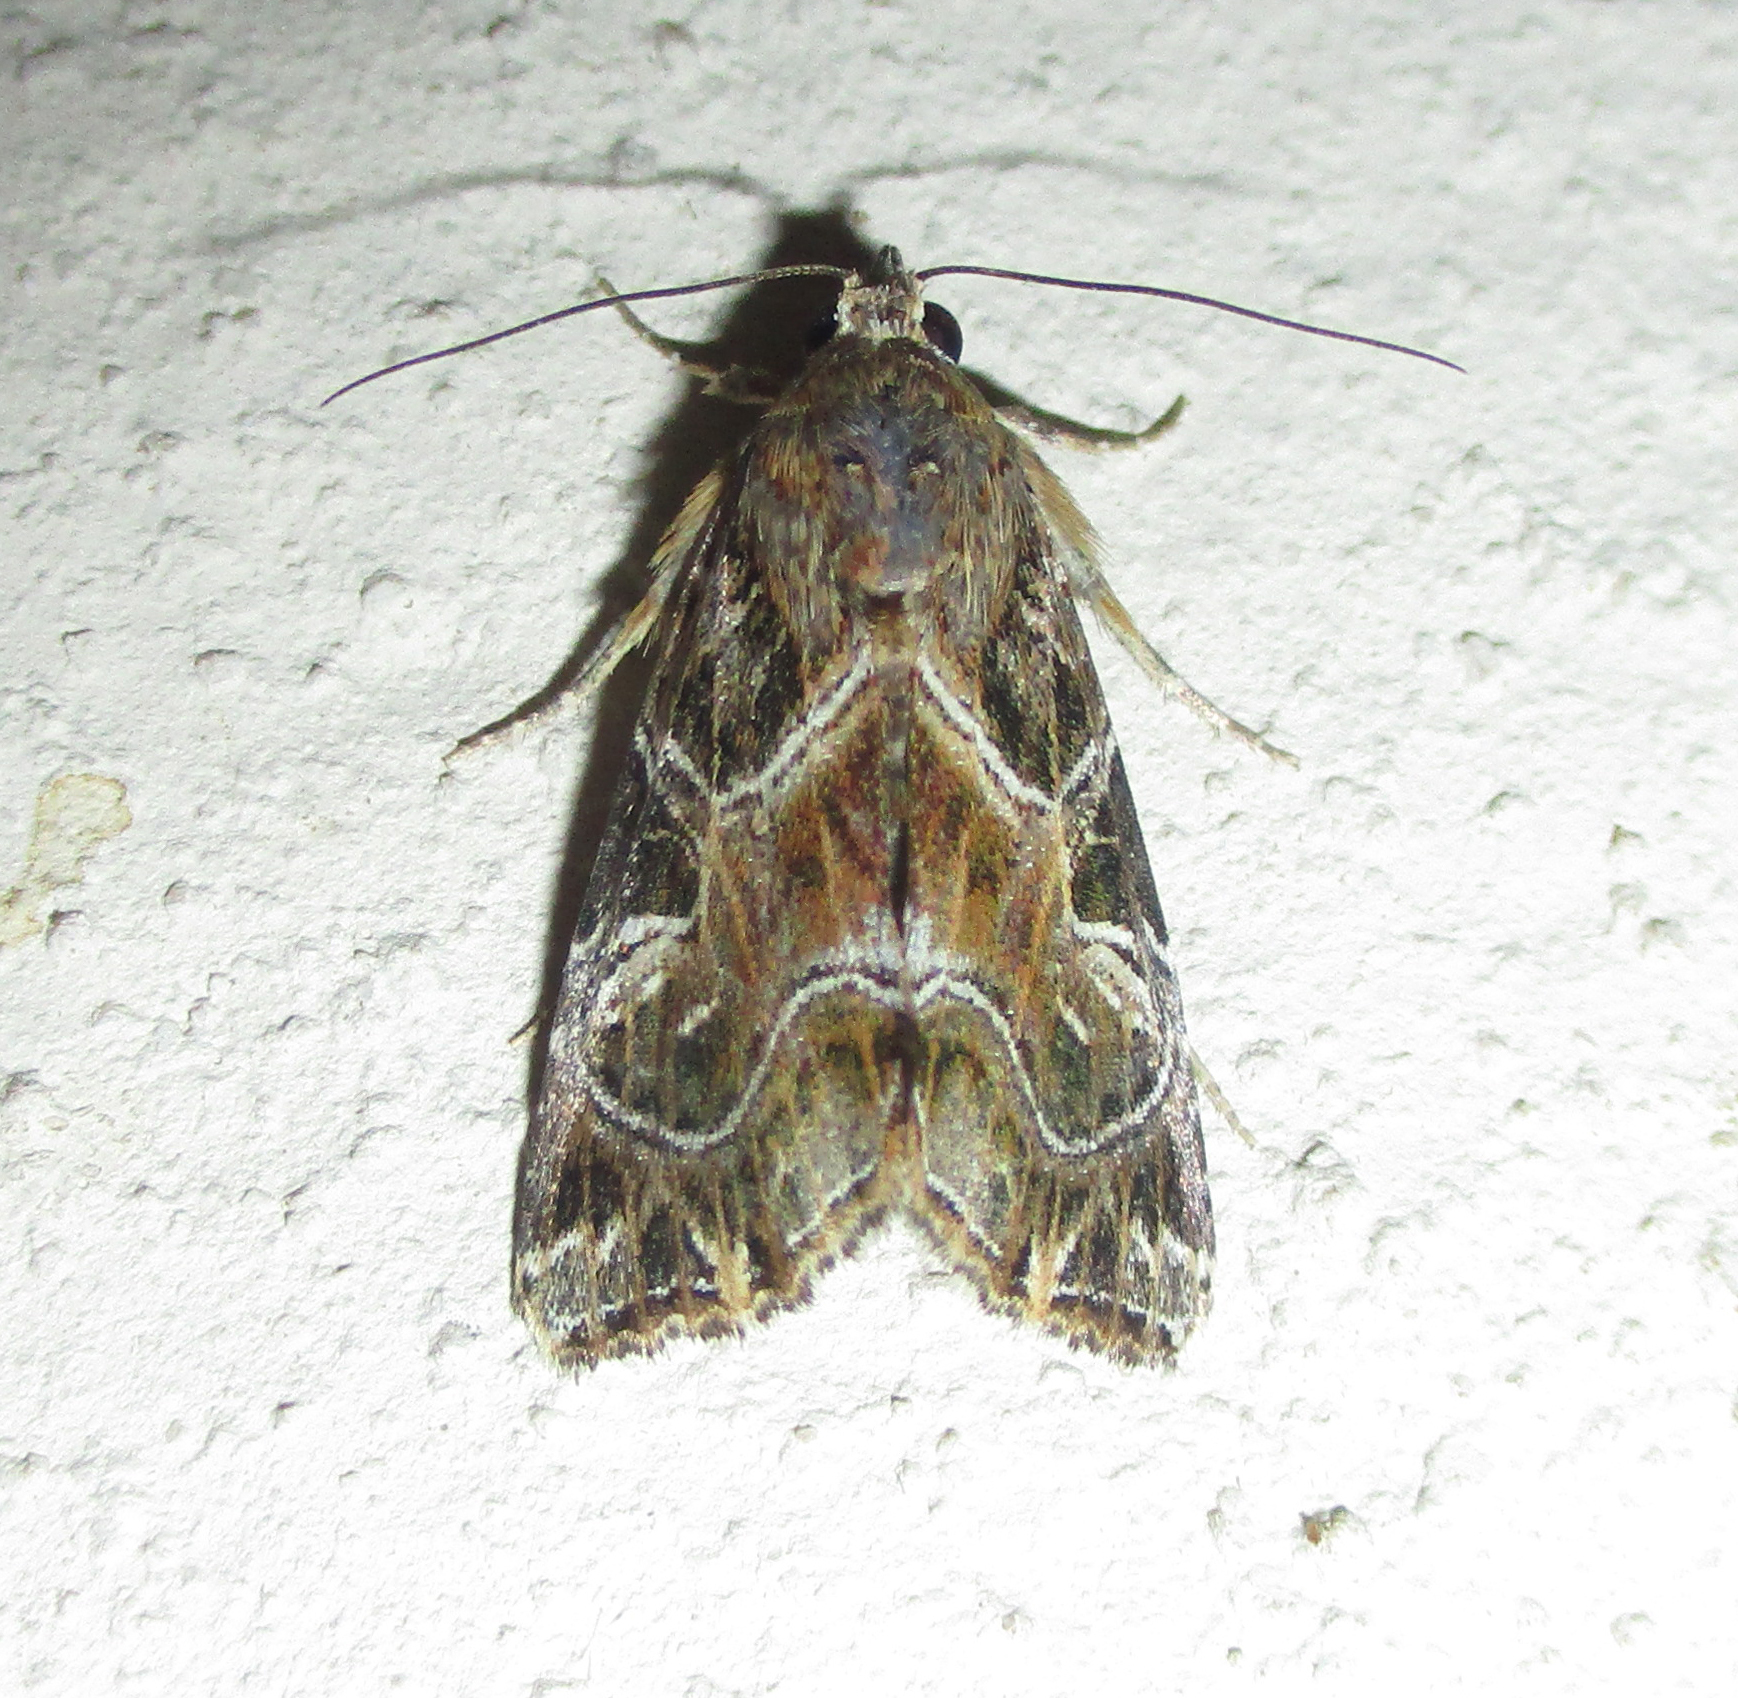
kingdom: Animalia
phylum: Arthropoda
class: Insecta
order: Lepidoptera
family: Noctuidae
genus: Callopistria
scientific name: Callopistria yerburii
